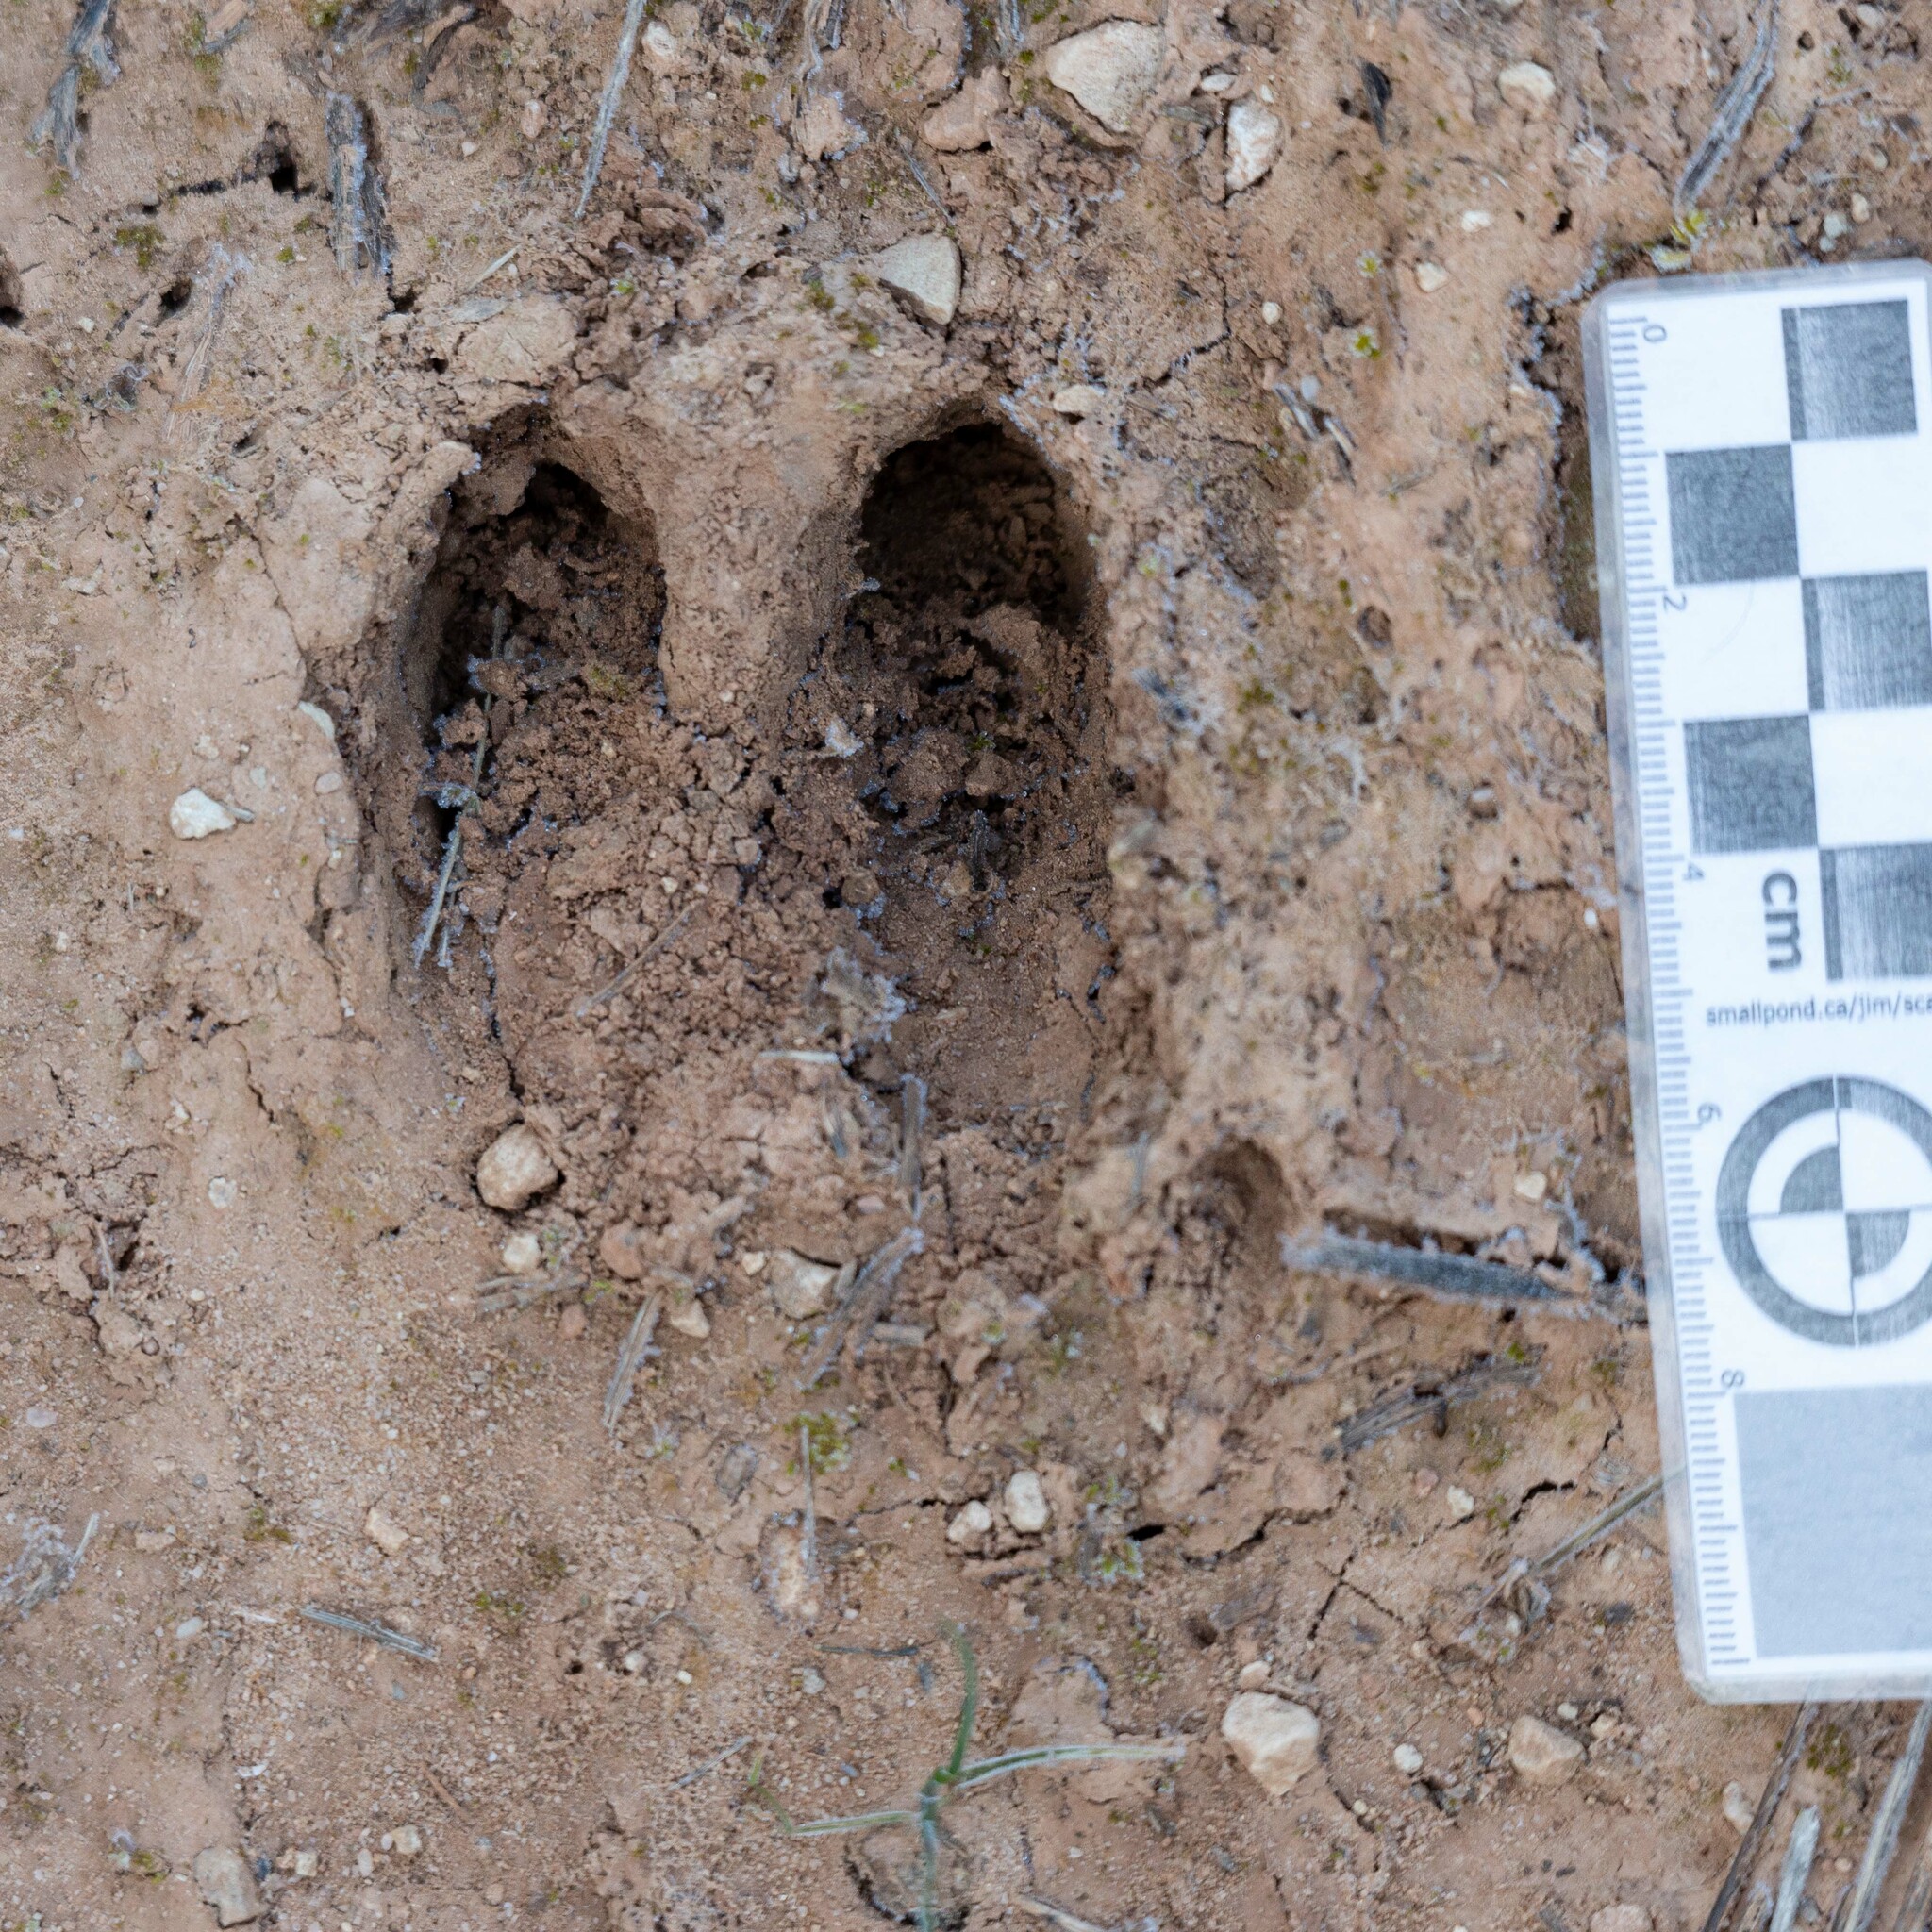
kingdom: Animalia
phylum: Chordata
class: Mammalia
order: Artiodactyla
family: Suidae
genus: Sus
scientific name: Sus scrofa
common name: Wild boar
